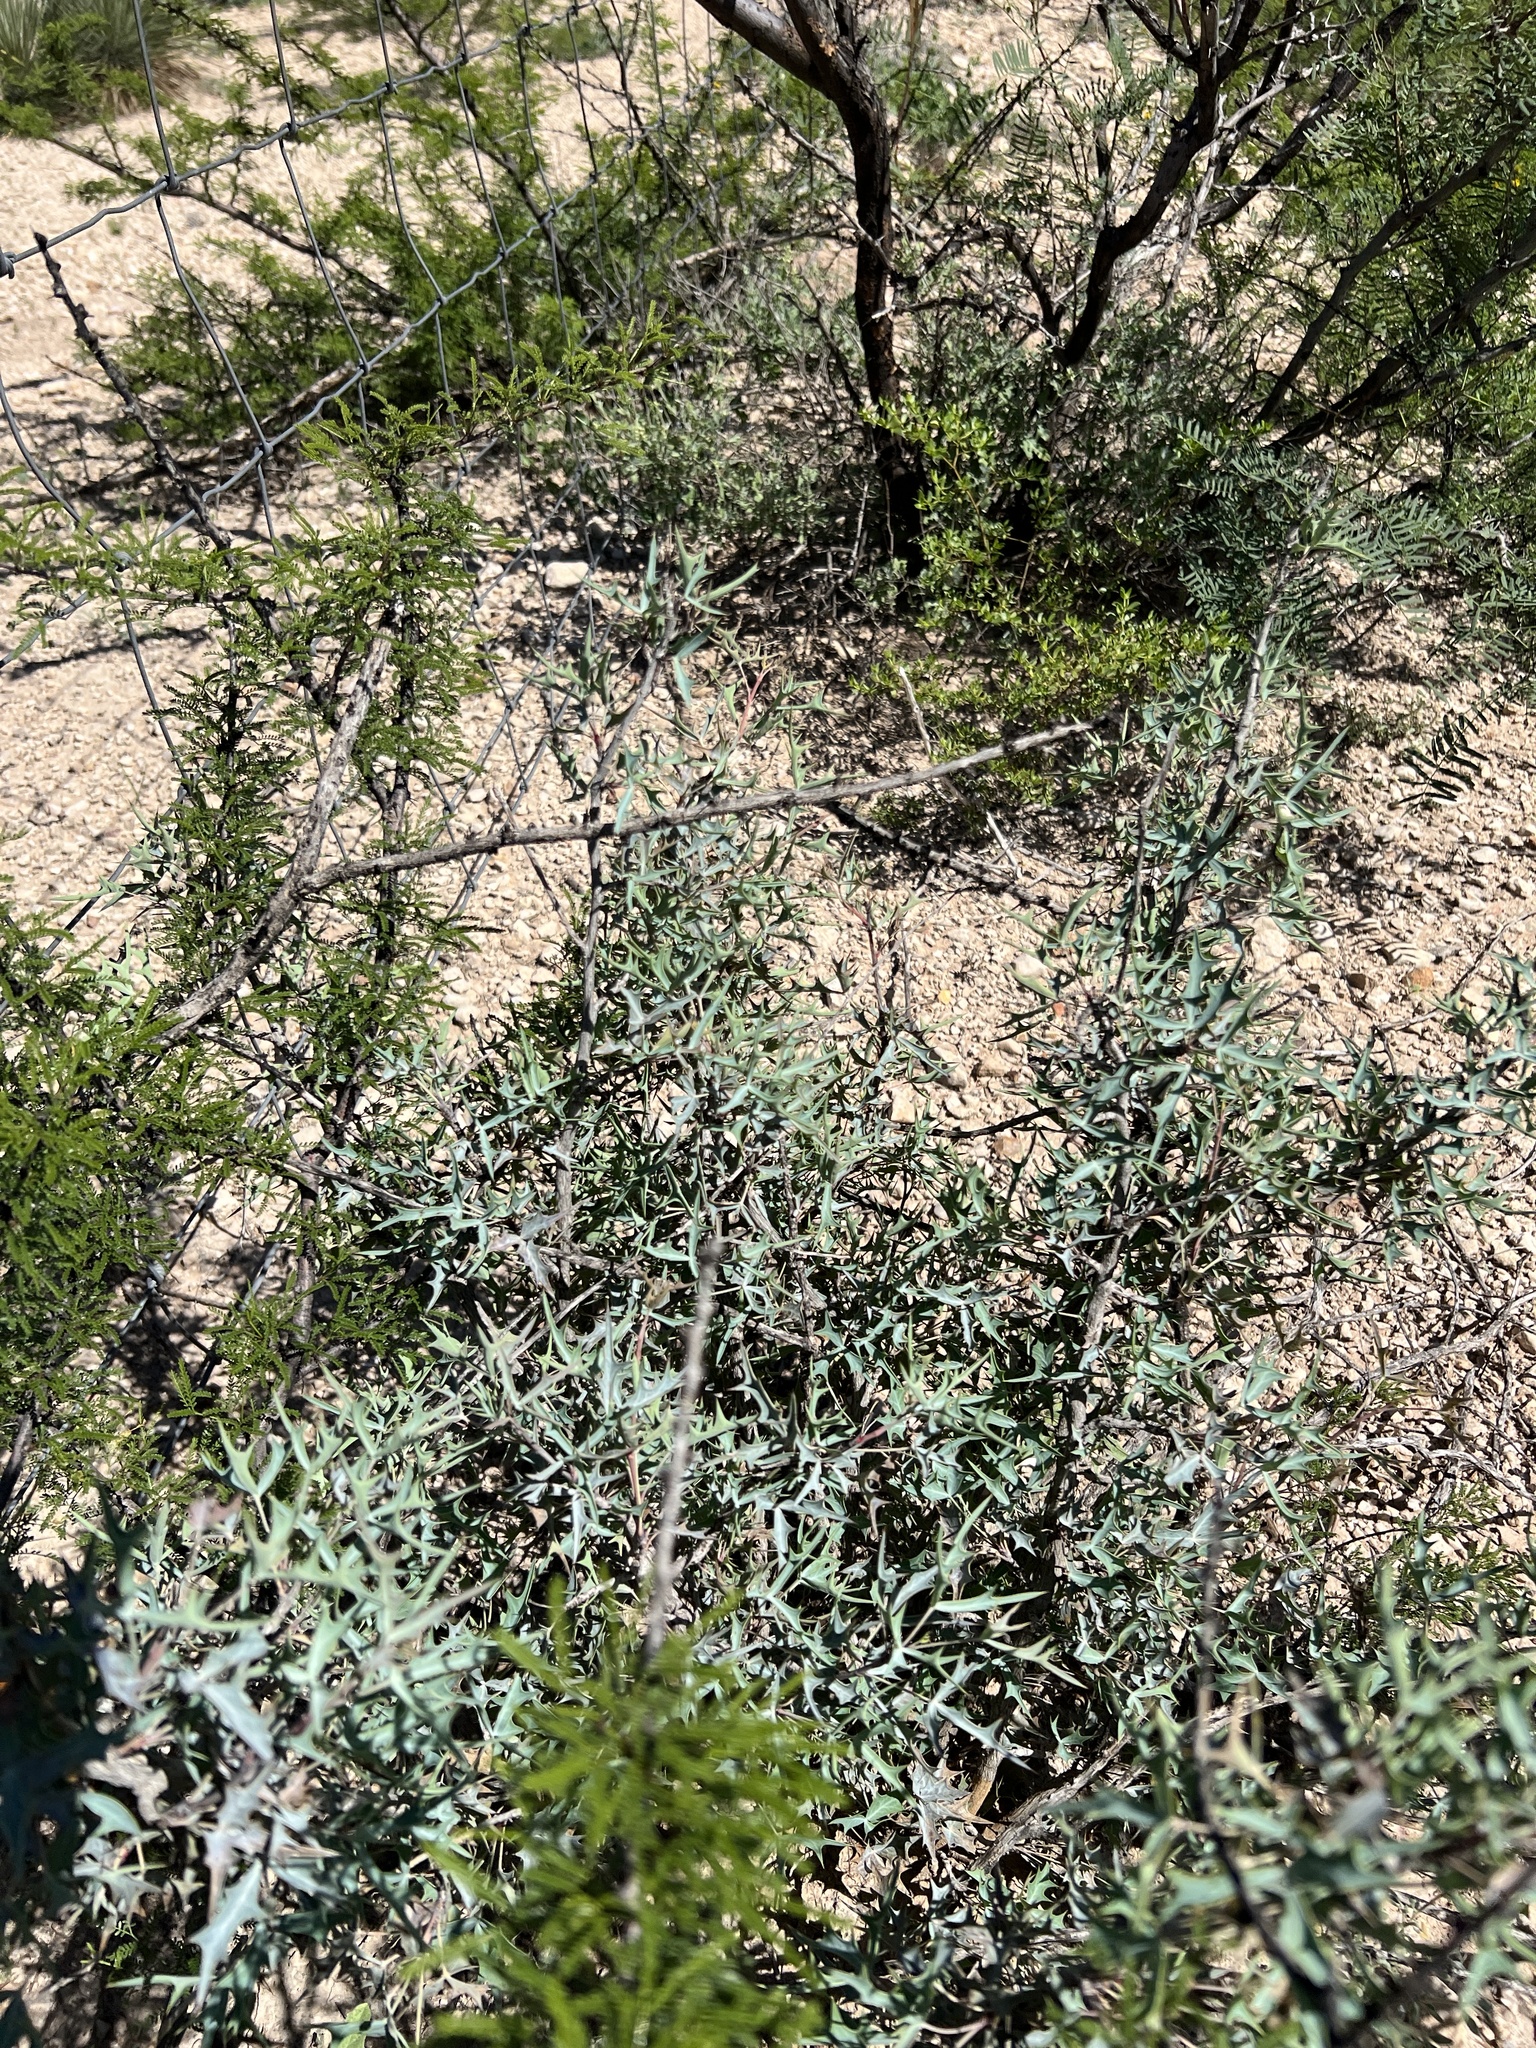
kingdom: Plantae
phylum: Tracheophyta
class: Magnoliopsida
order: Ranunculales
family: Berberidaceae
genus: Alloberberis
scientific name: Alloberberis trifoliolata
